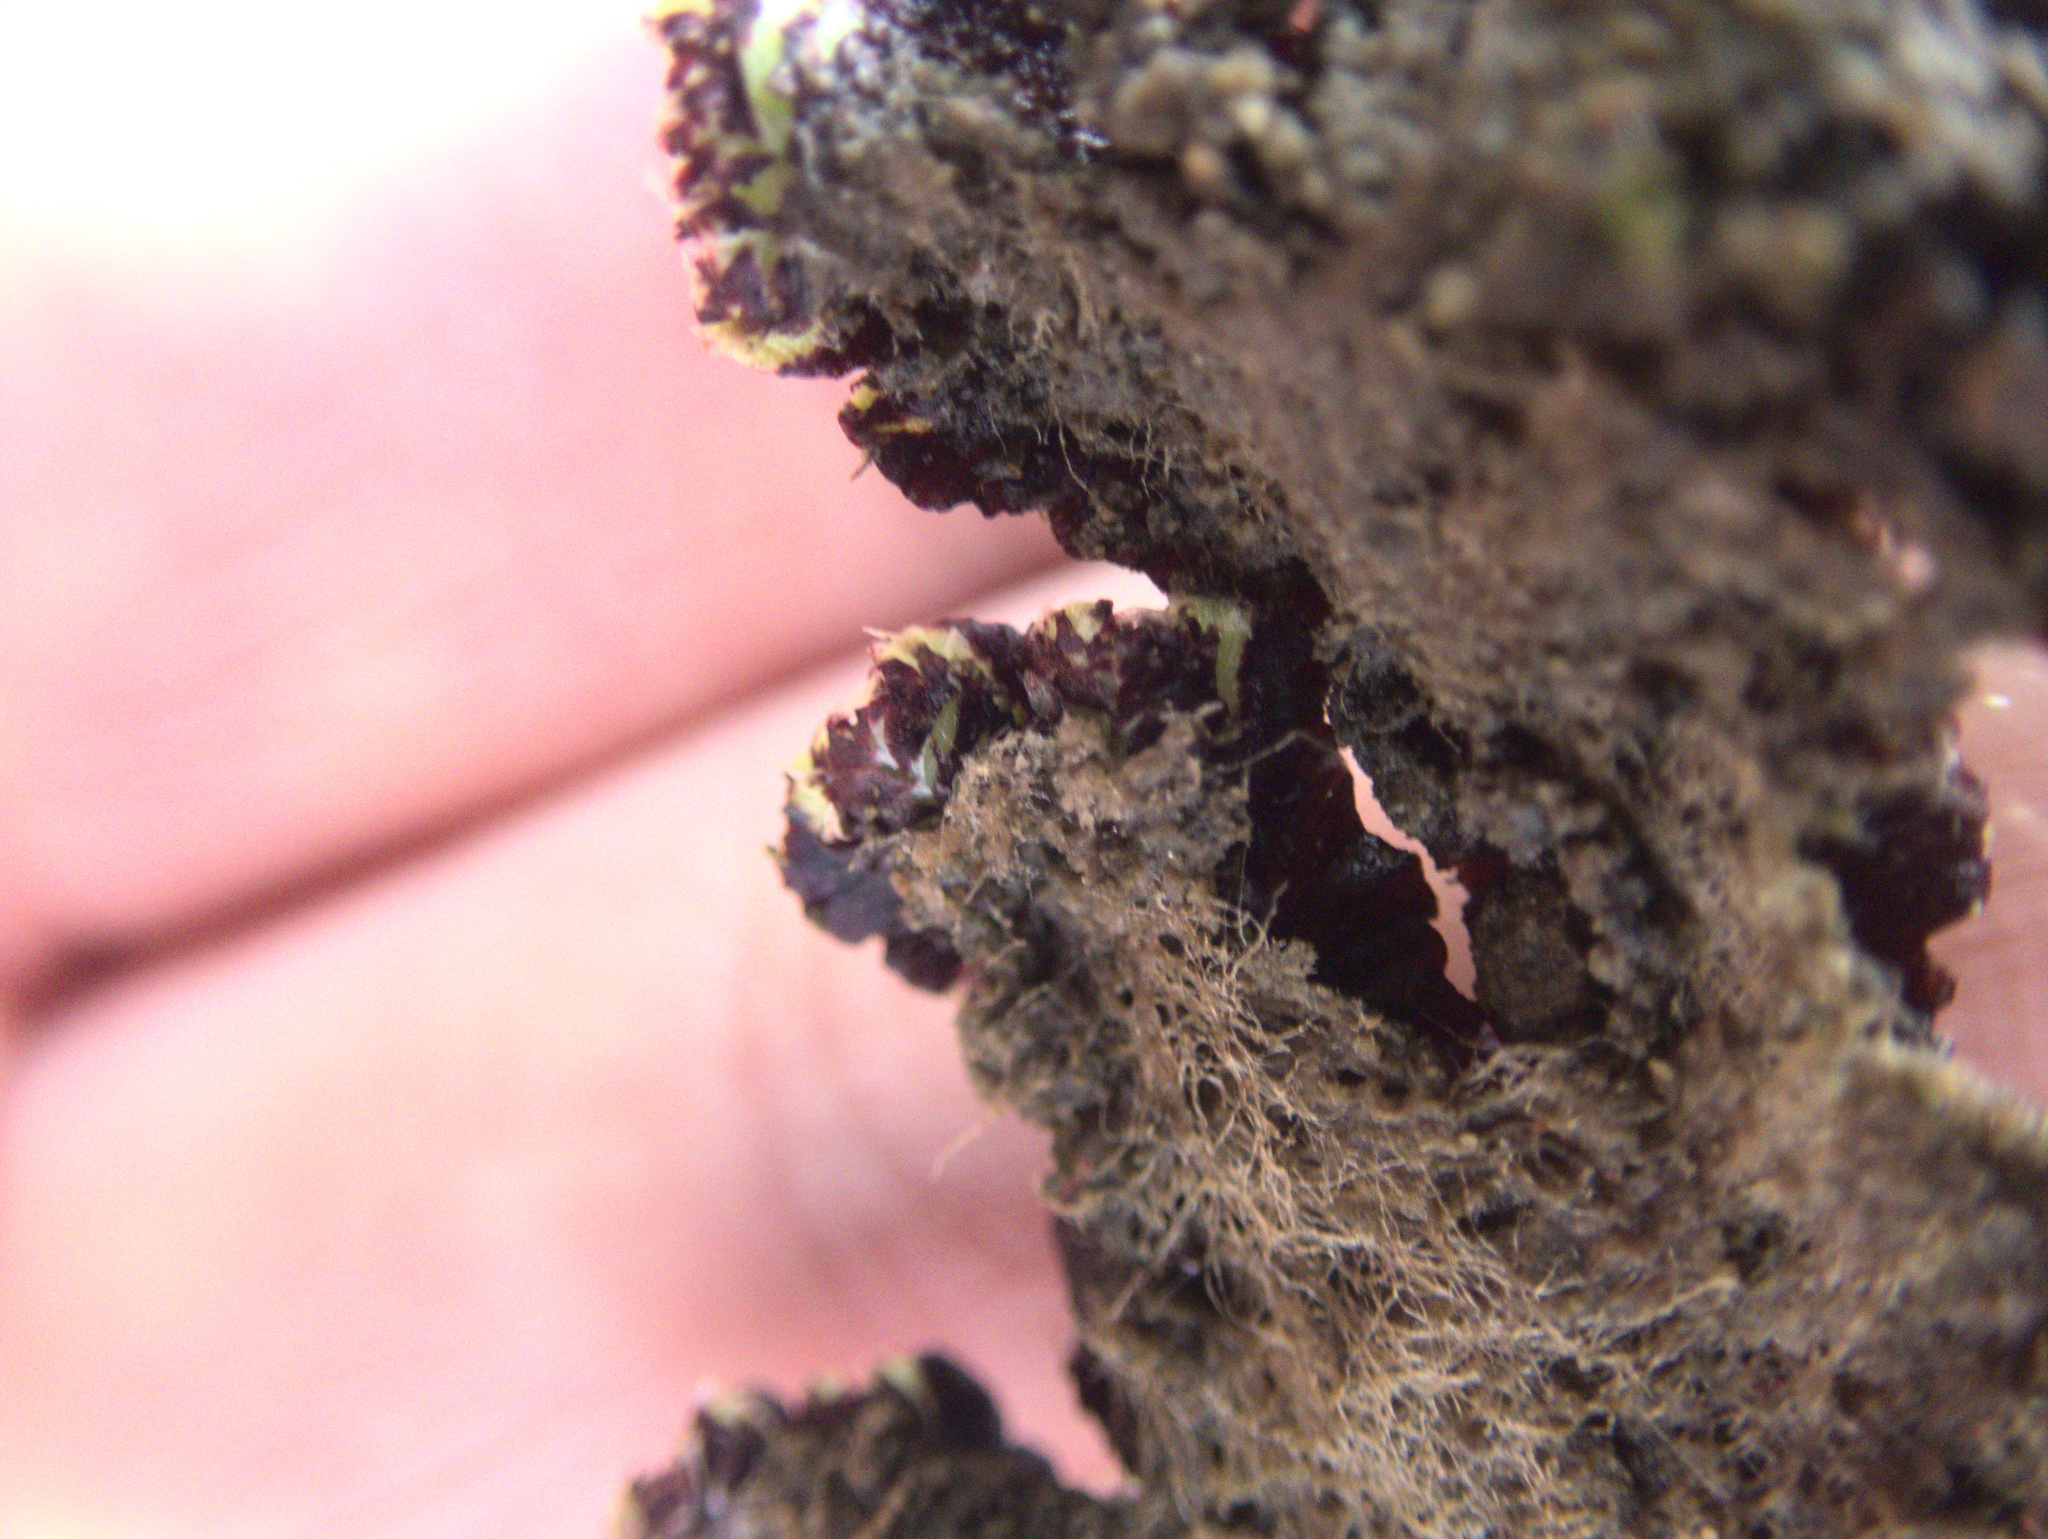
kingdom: Plantae
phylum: Marchantiophyta
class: Marchantiopsida
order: Marchantiales
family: Aytoniaceae
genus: Plagiochasma
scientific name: Plagiochasma rupestre
